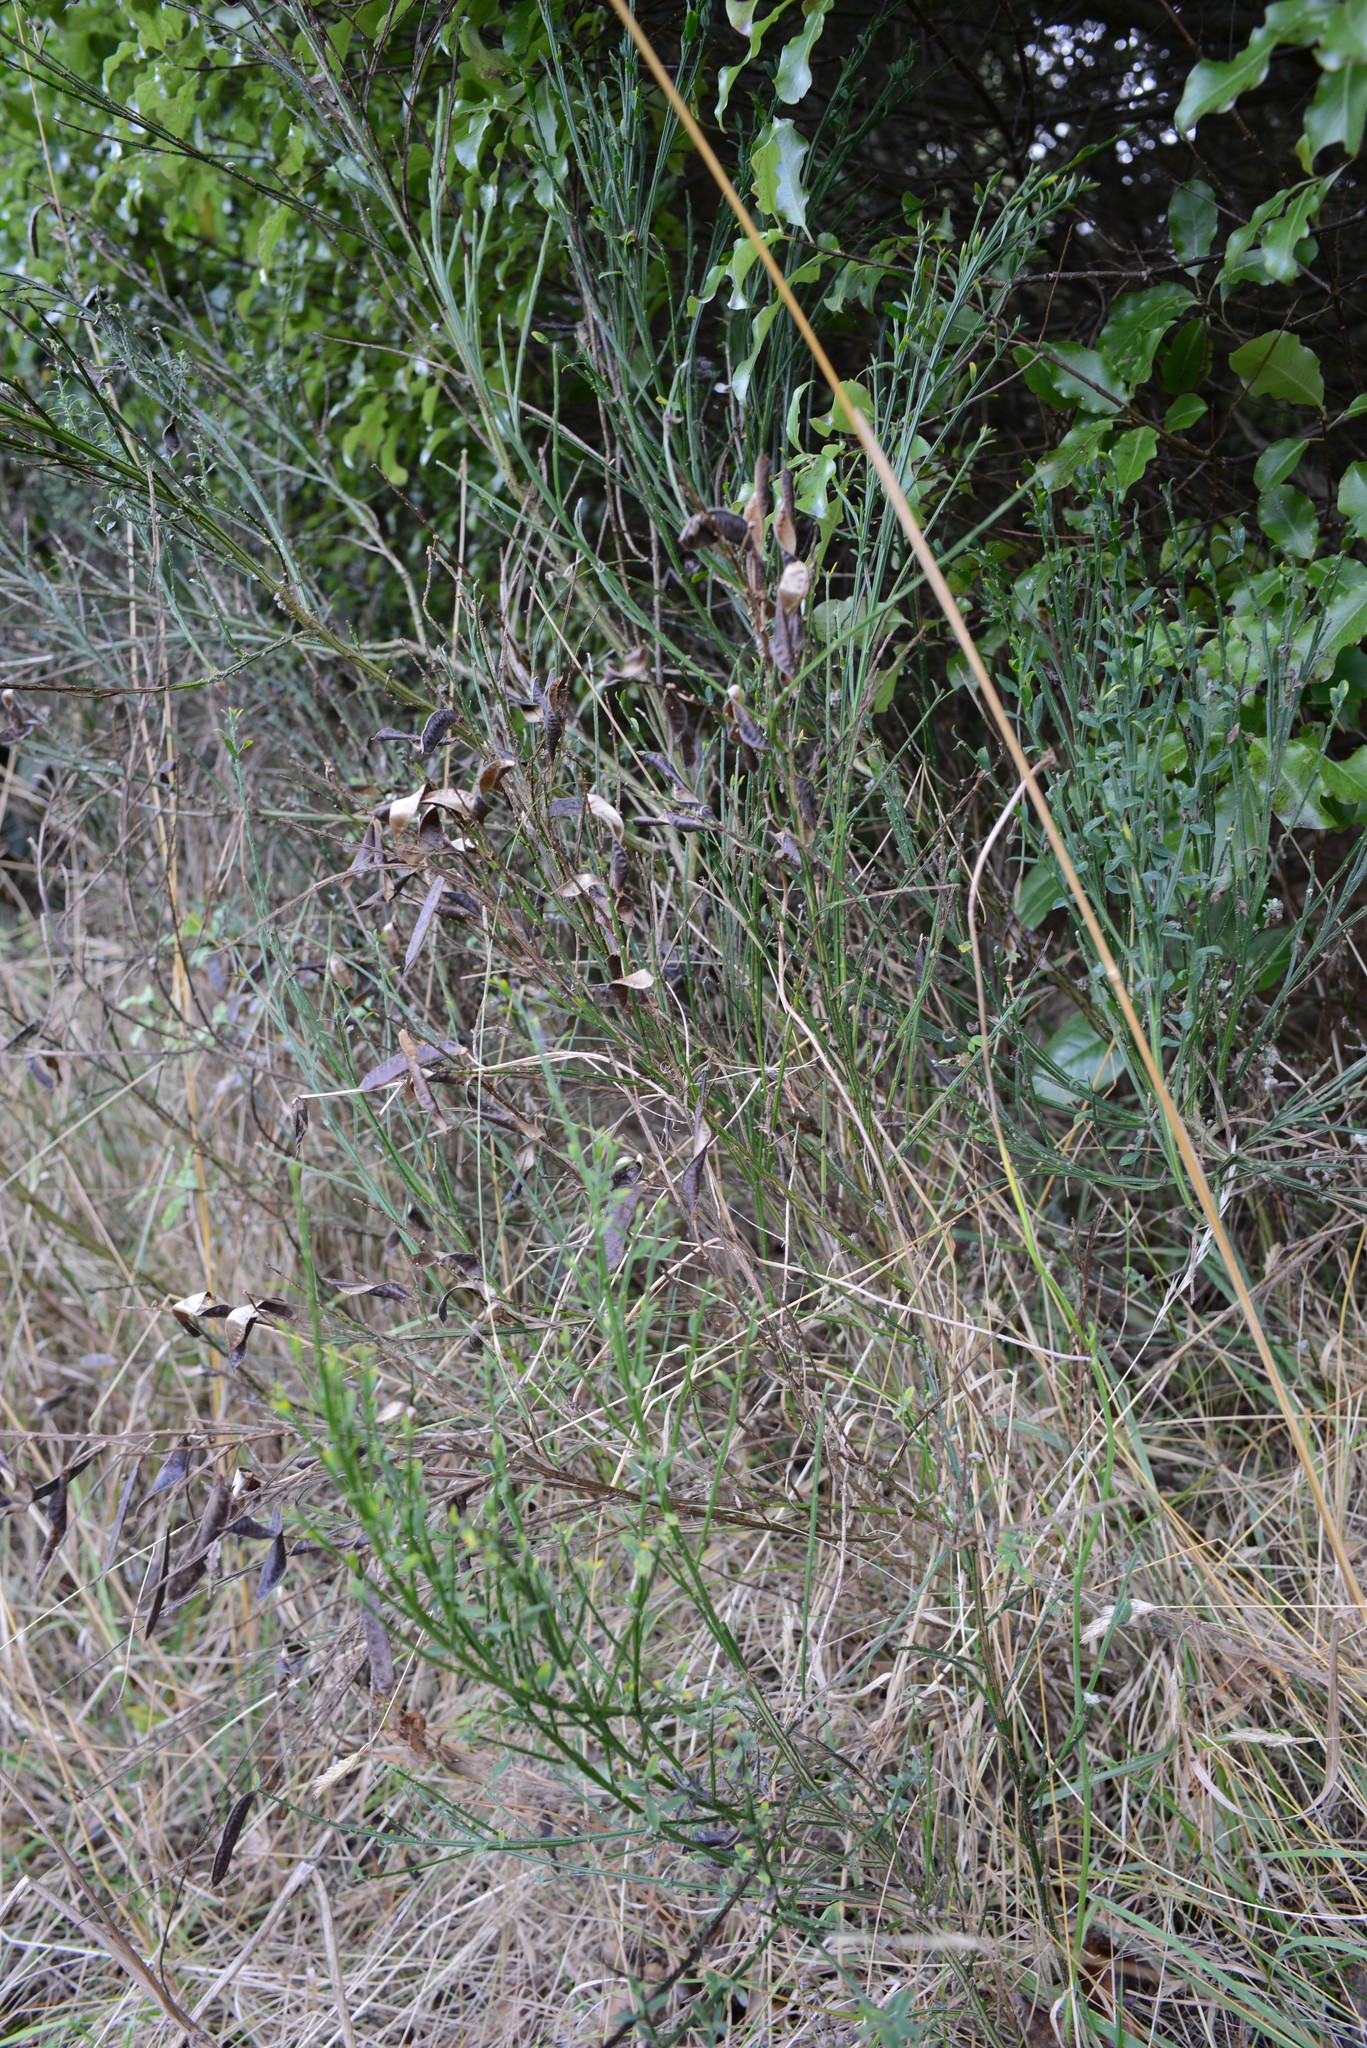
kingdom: Plantae
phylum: Tracheophyta
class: Magnoliopsida
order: Fabales
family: Fabaceae
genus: Cytisus
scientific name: Cytisus scoparius
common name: Scotch broom
